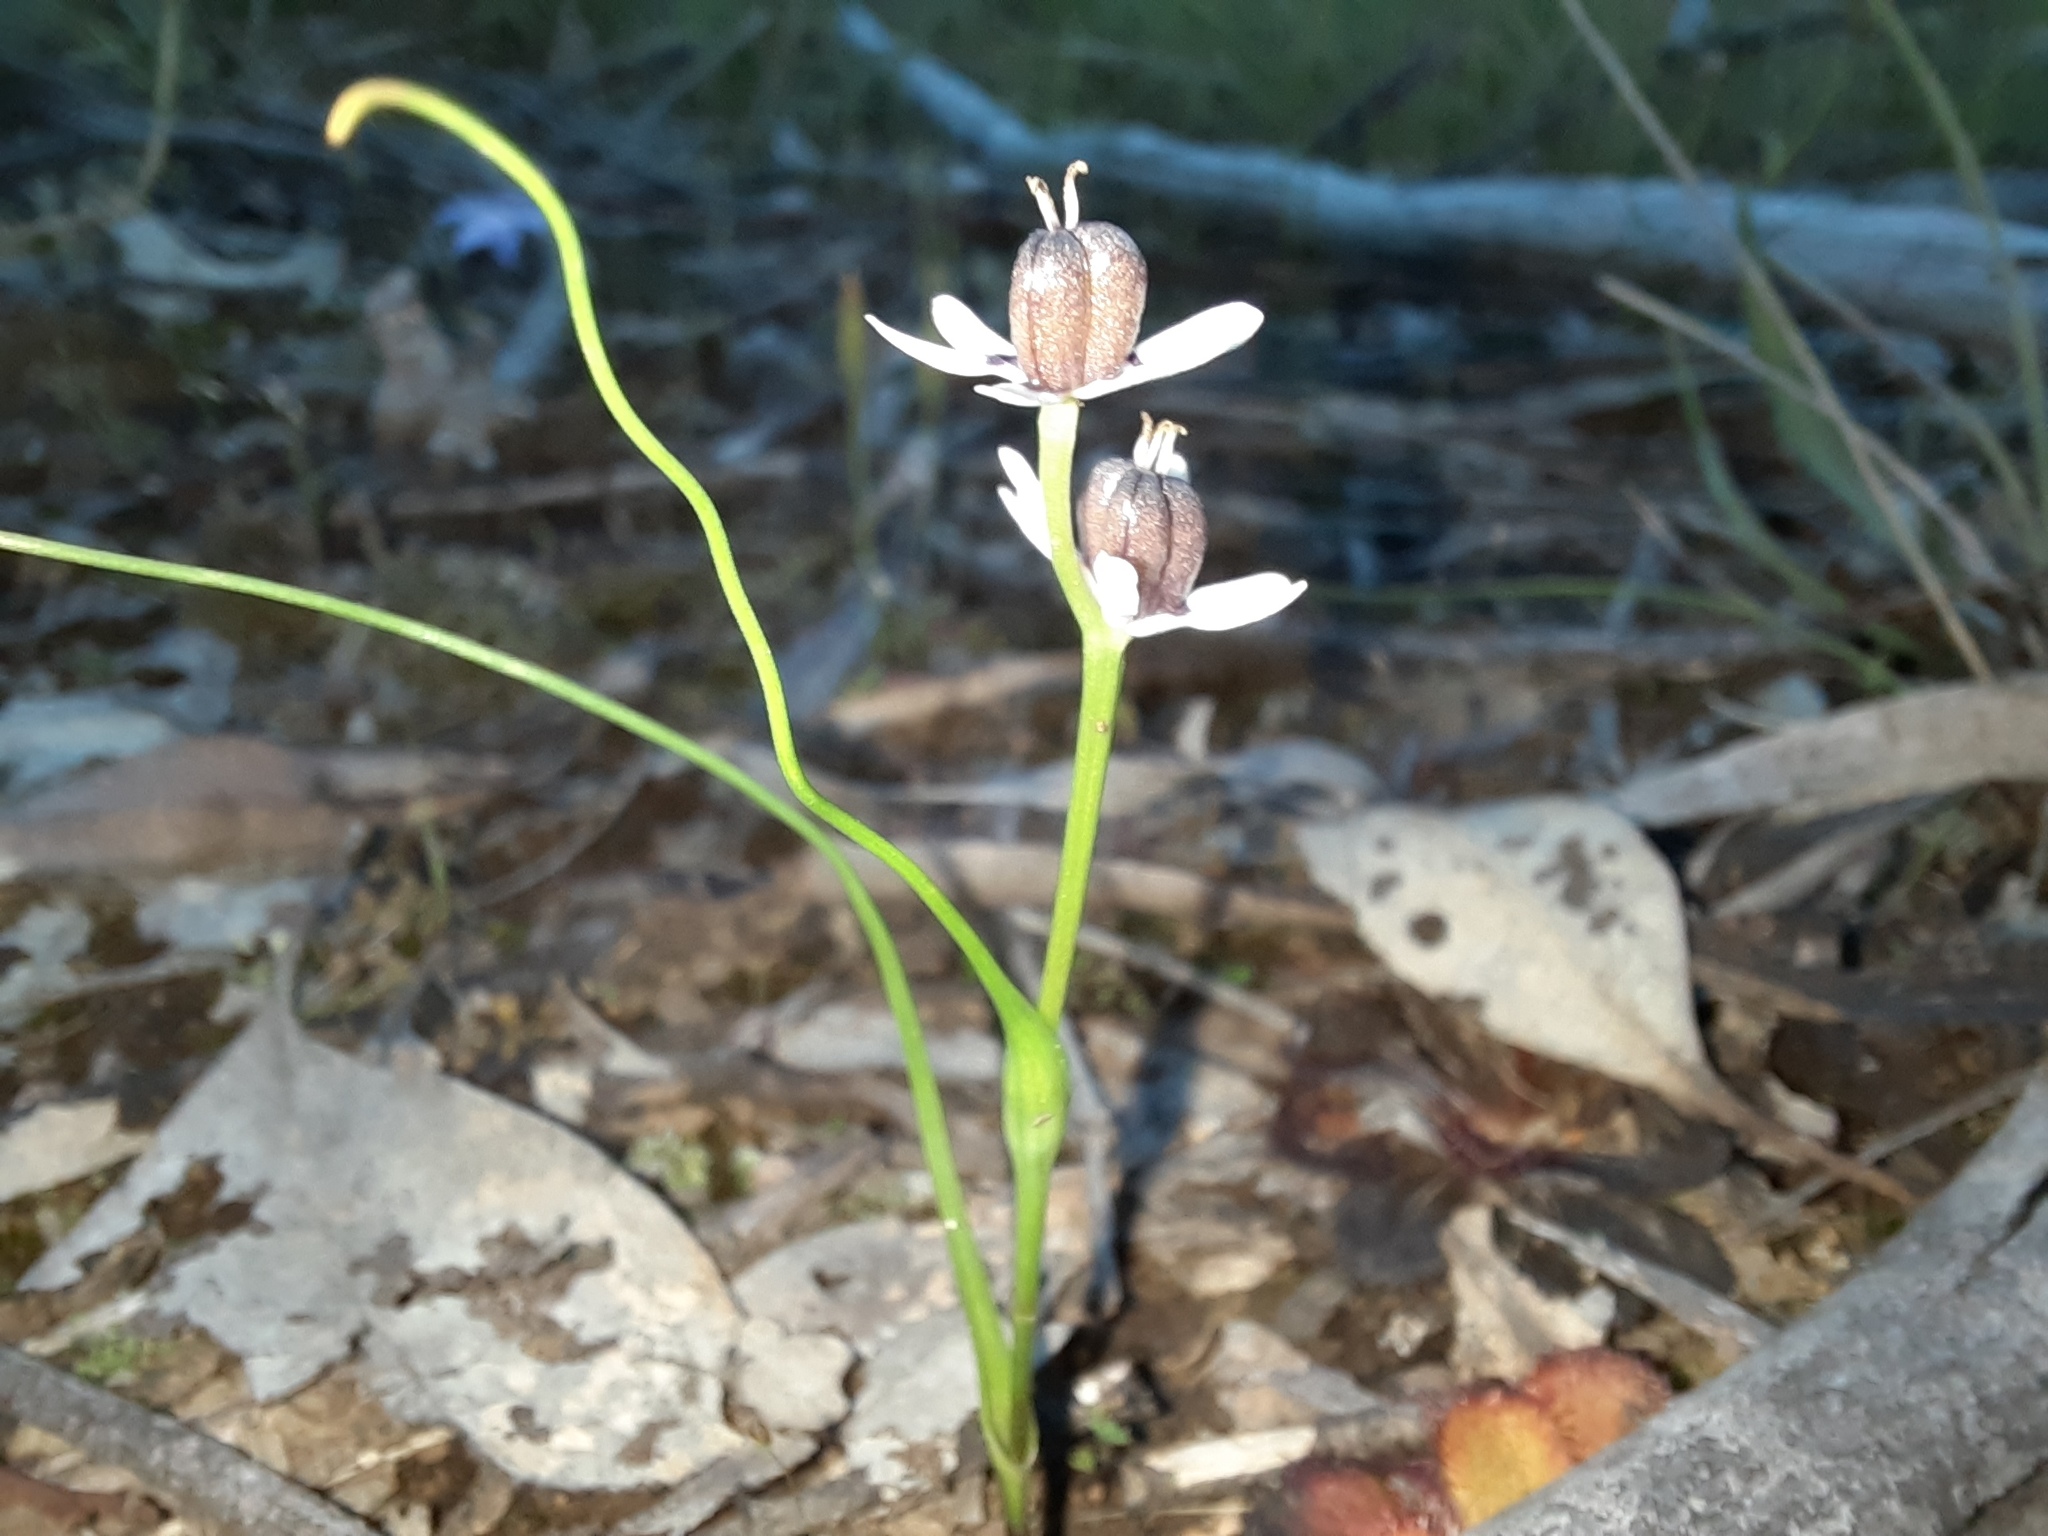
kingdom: Plantae
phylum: Tracheophyta
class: Liliopsida
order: Liliales
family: Colchicaceae
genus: Wurmbea
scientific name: Wurmbea dioica
